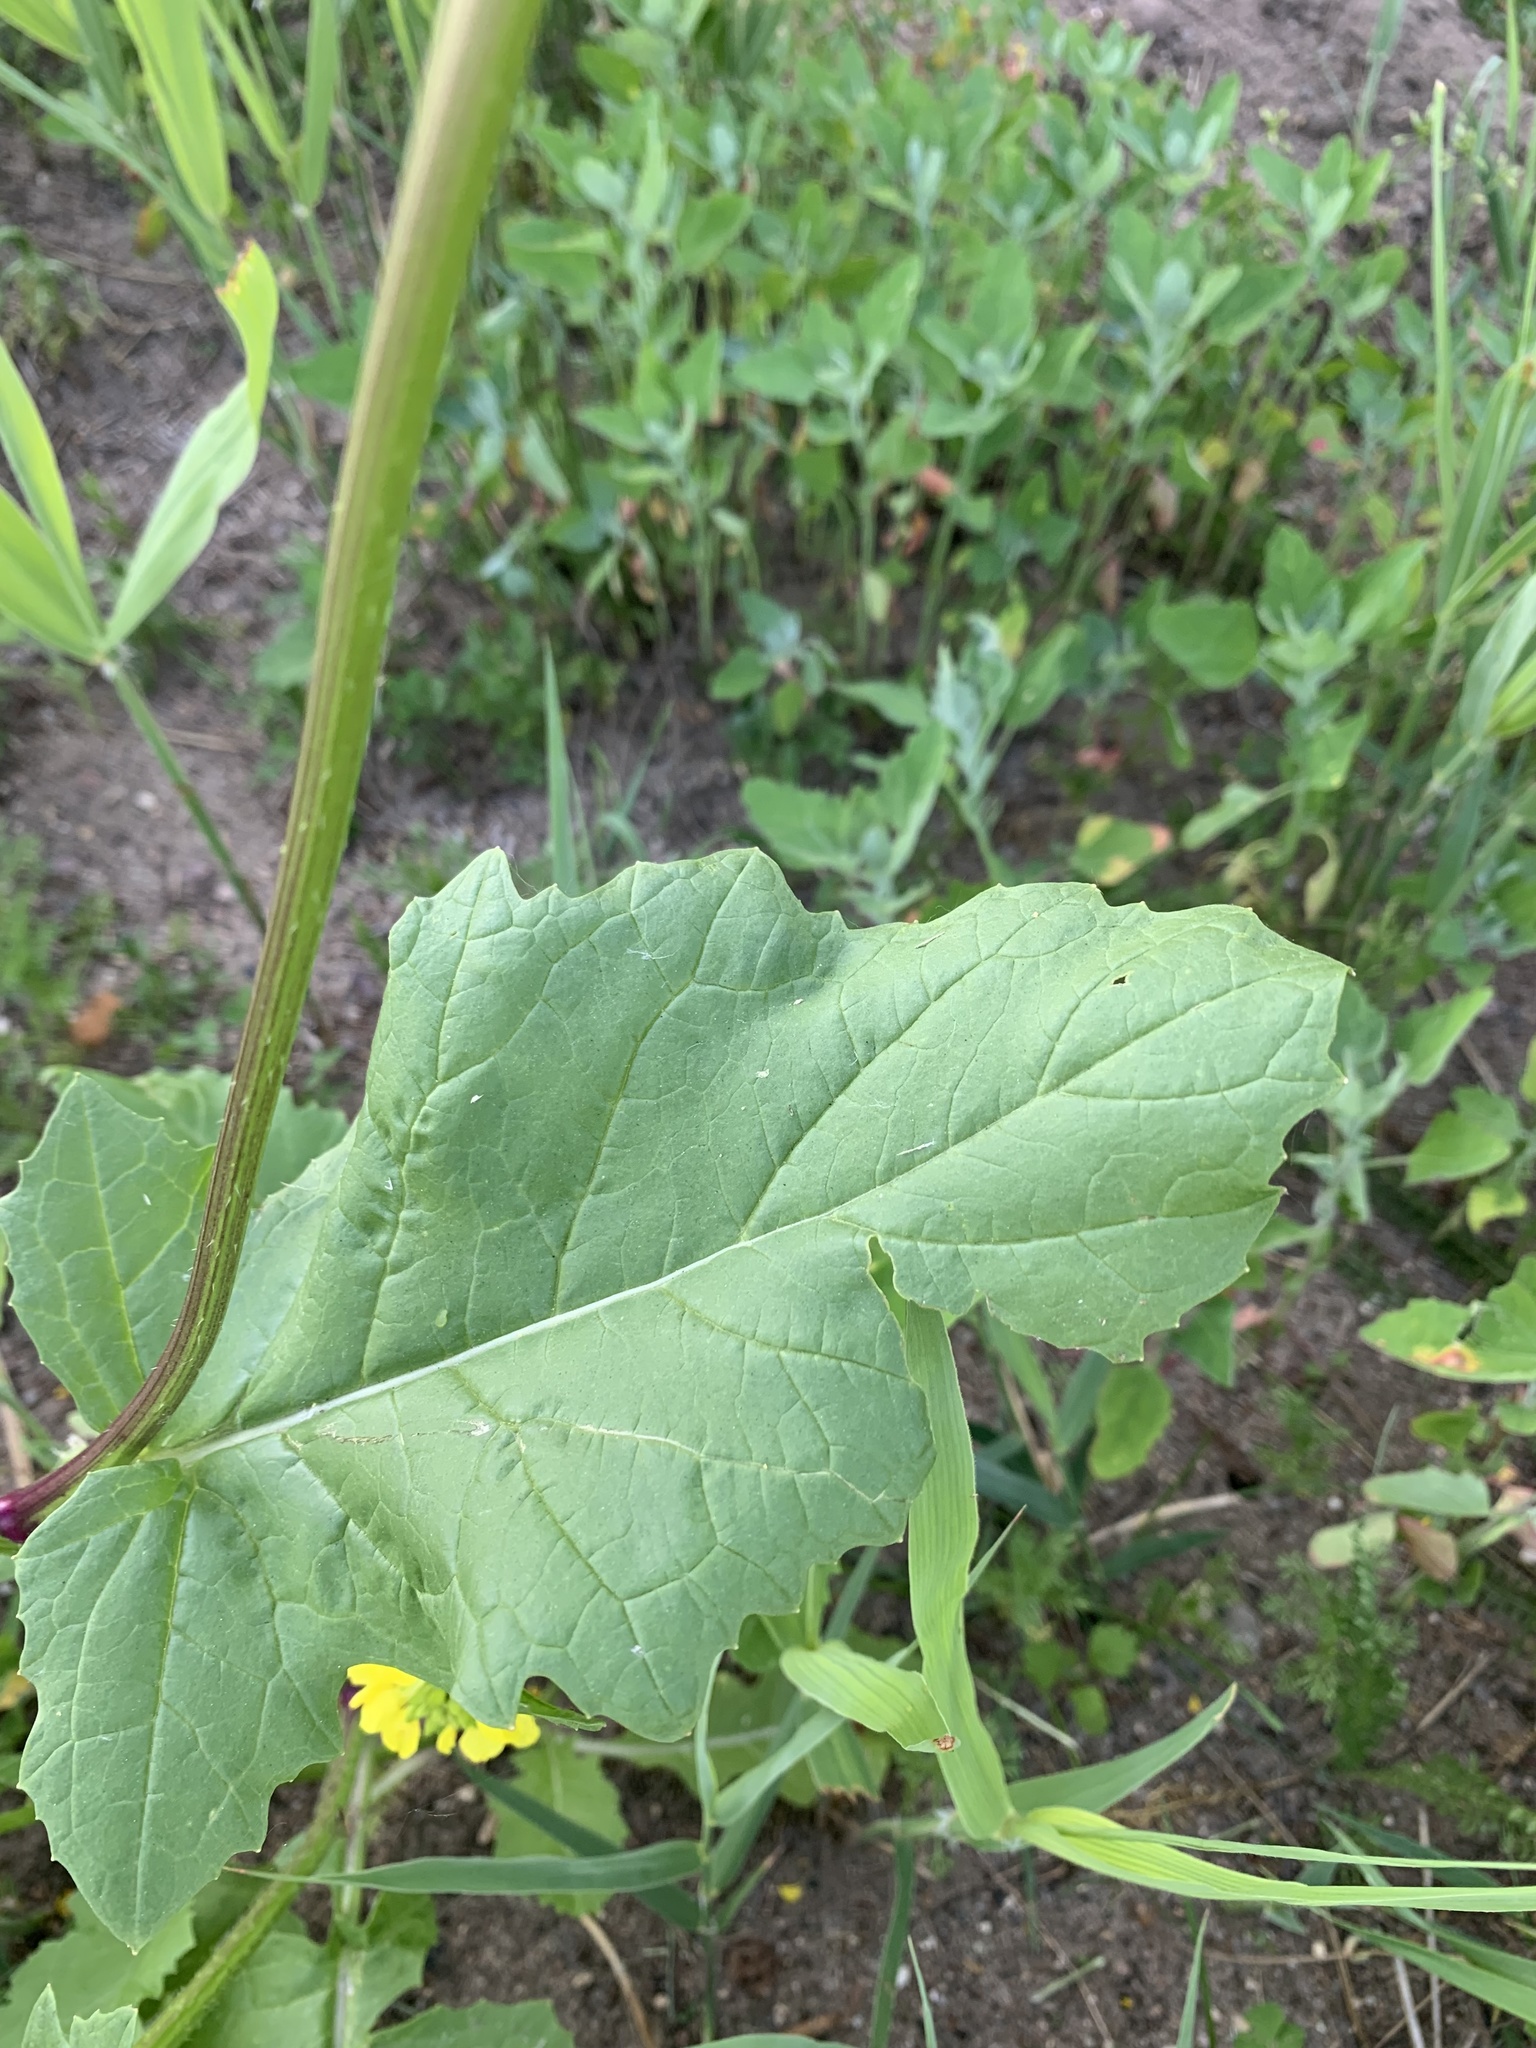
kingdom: Plantae
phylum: Tracheophyta
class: Magnoliopsida
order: Brassicales
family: Brassicaceae
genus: Sinapis
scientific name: Sinapis arvensis
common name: Charlock
